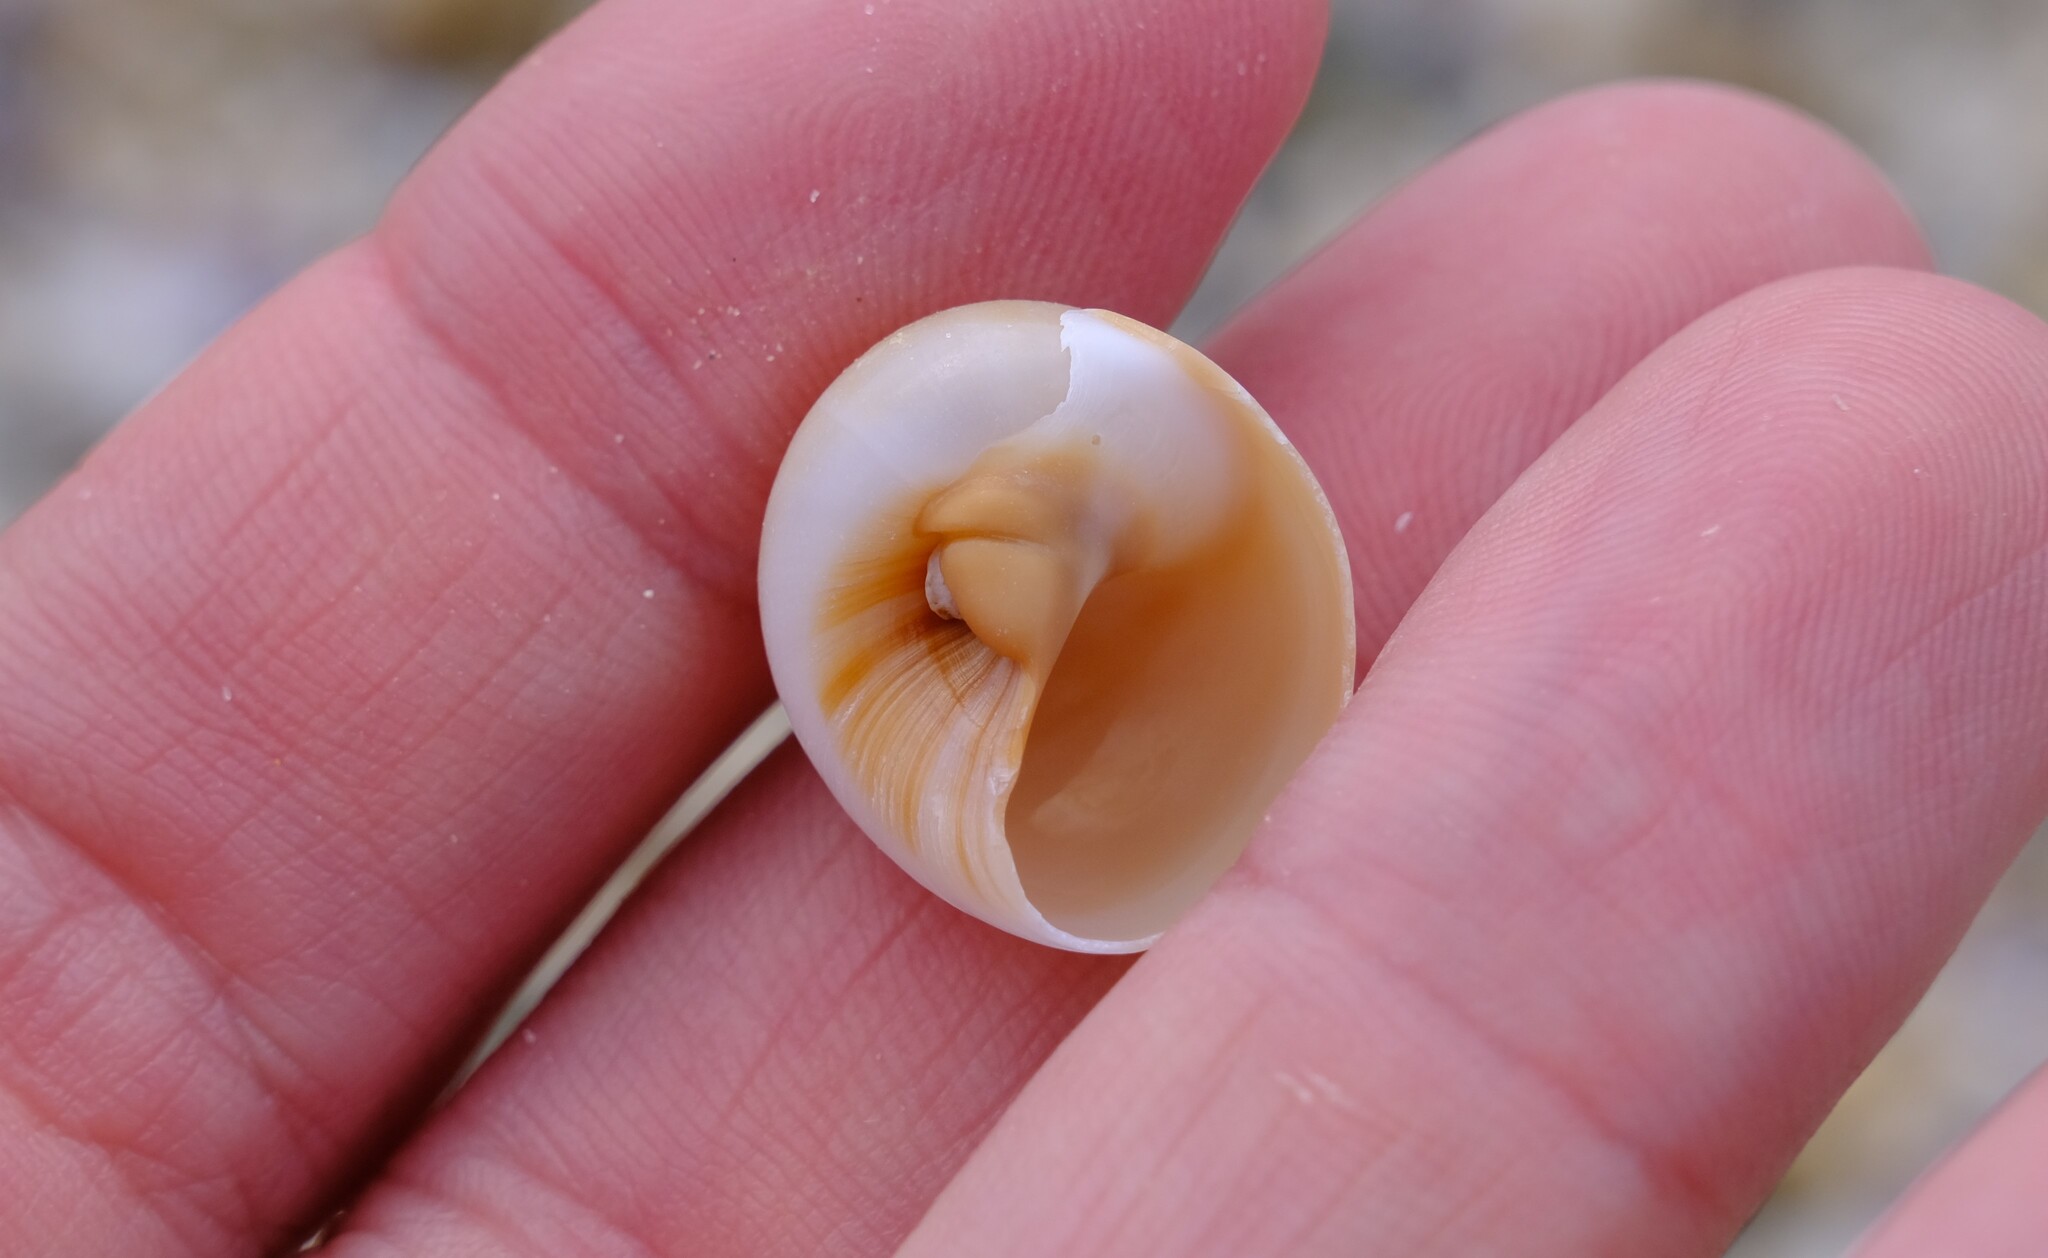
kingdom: Animalia
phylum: Mollusca
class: Gastropoda
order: Littorinimorpha
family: Naticidae
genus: Neverita
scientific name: Neverita didyma
